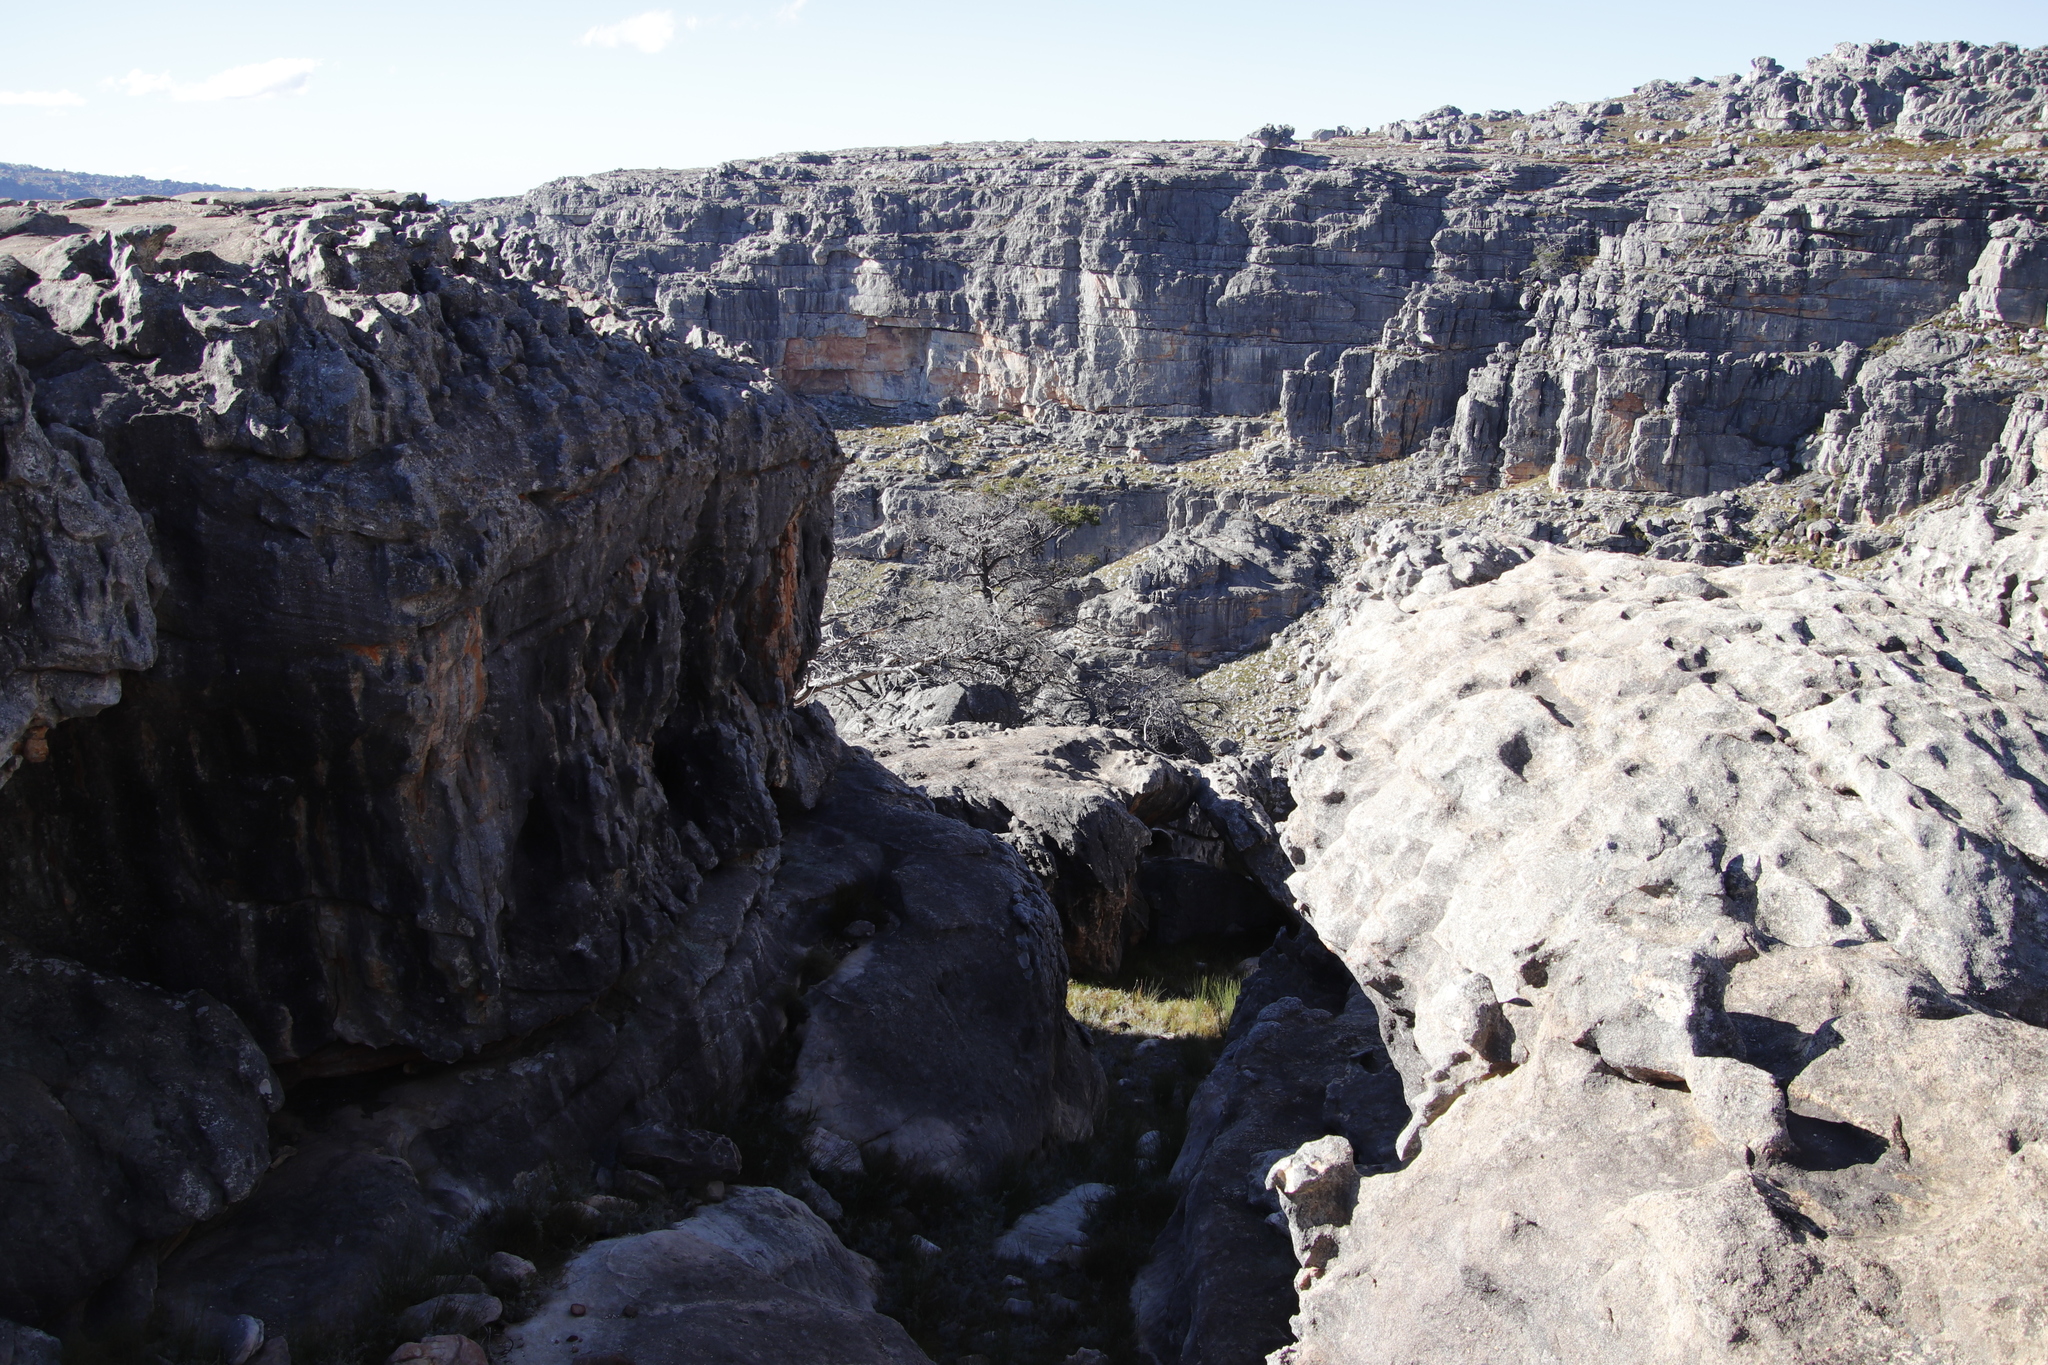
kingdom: Plantae
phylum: Tracheophyta
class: Pinopsida
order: Pinales
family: Cupressaceae
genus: Widdringtonia
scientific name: Widdringtonia nodiflora
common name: Cape cypress
